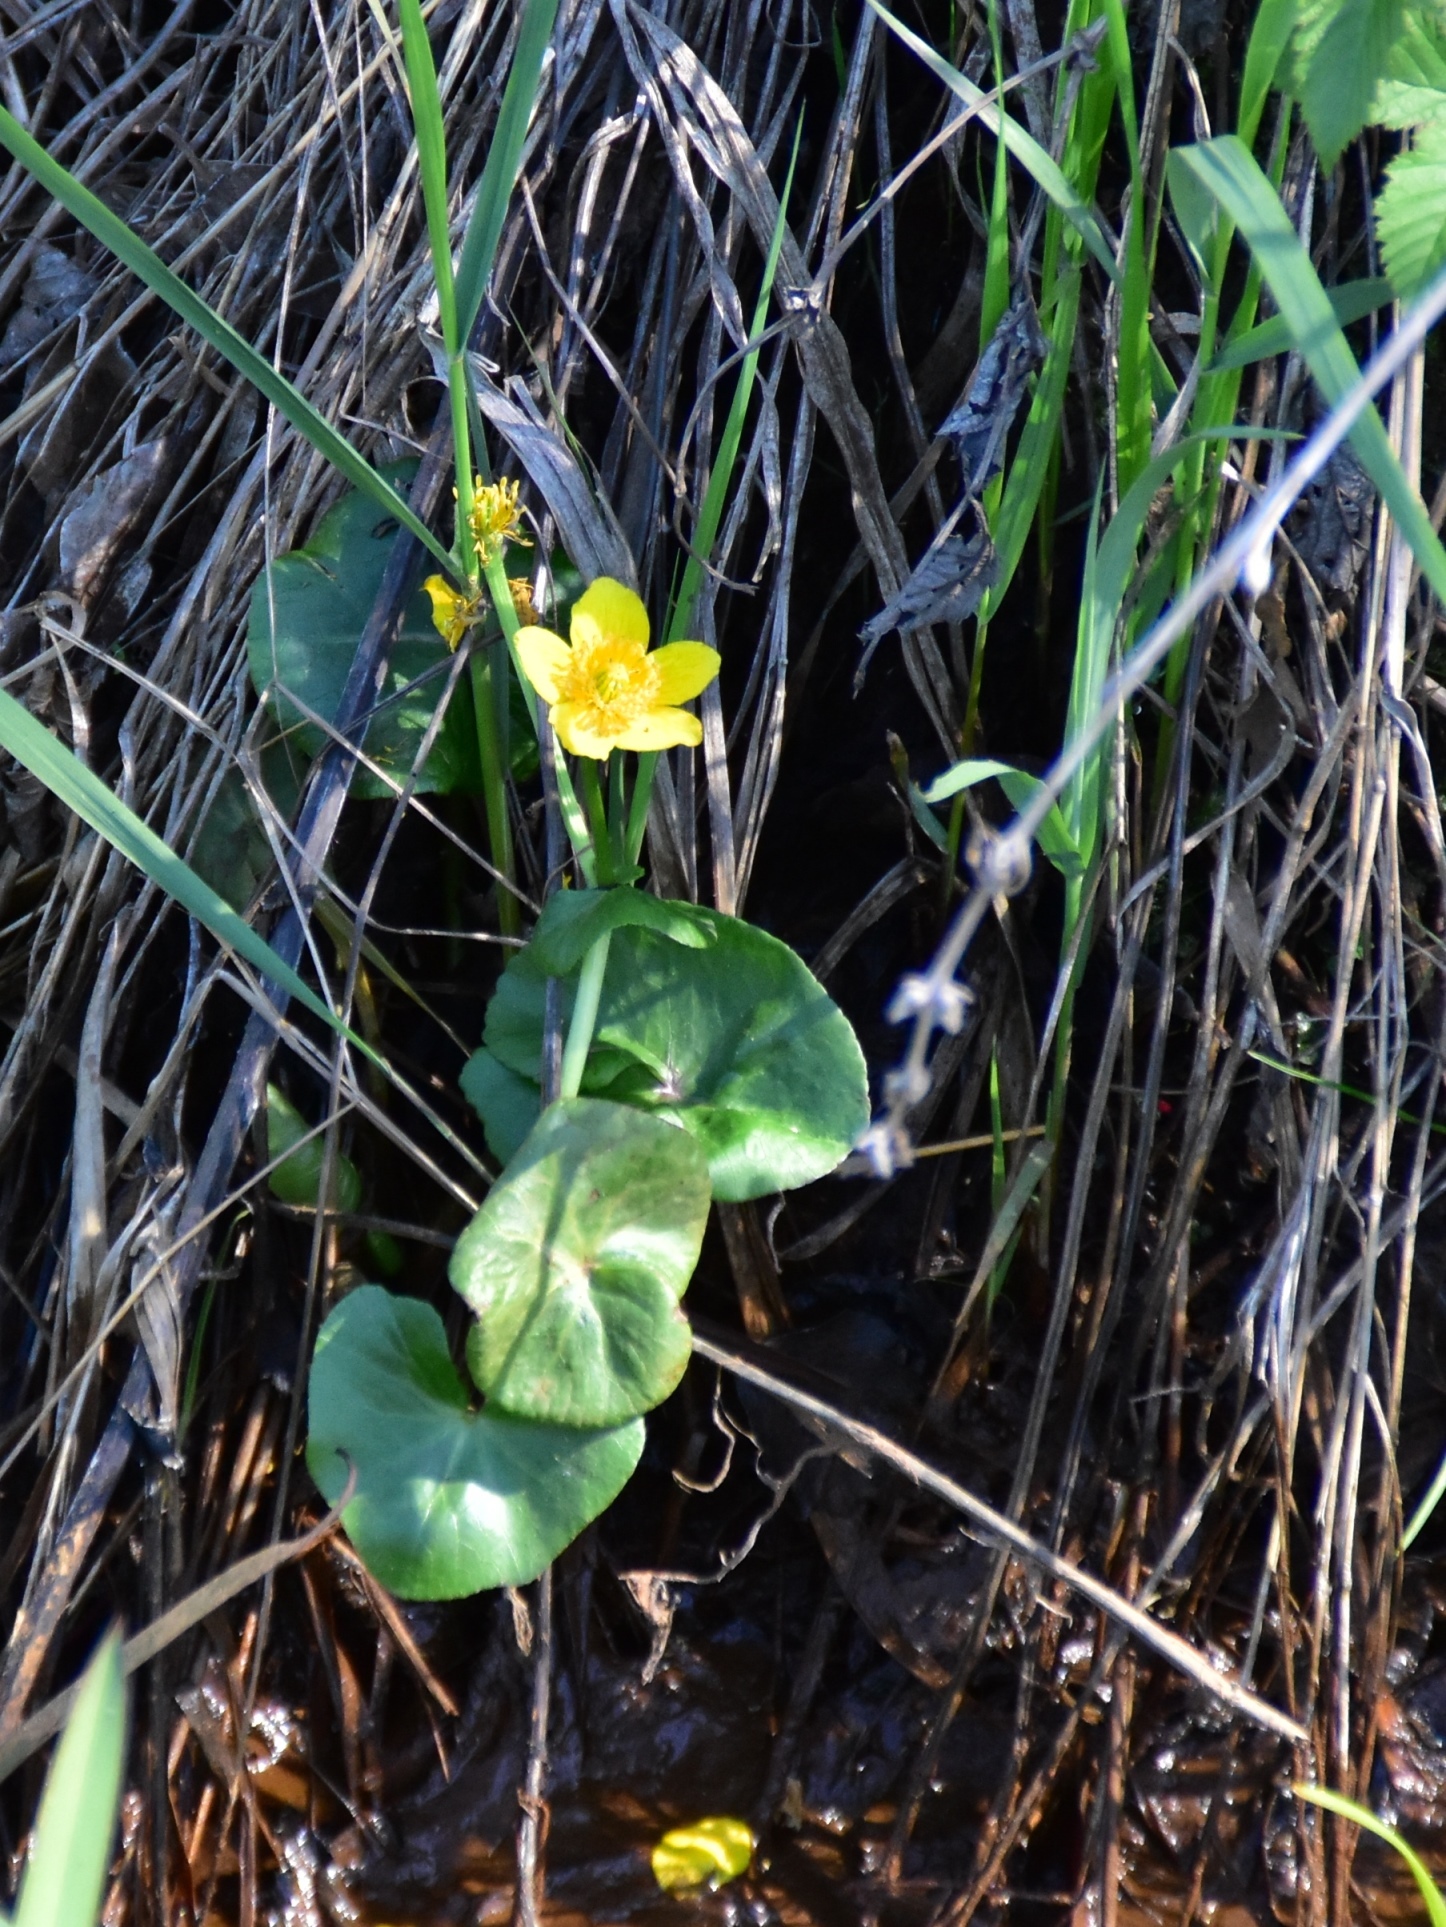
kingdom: Plantae
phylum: Tracheophyta
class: Magnoliopsida
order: Ranunculales
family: Ranunculaceae
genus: Caltha
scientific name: Caltha palustris
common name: Marsh marigold
